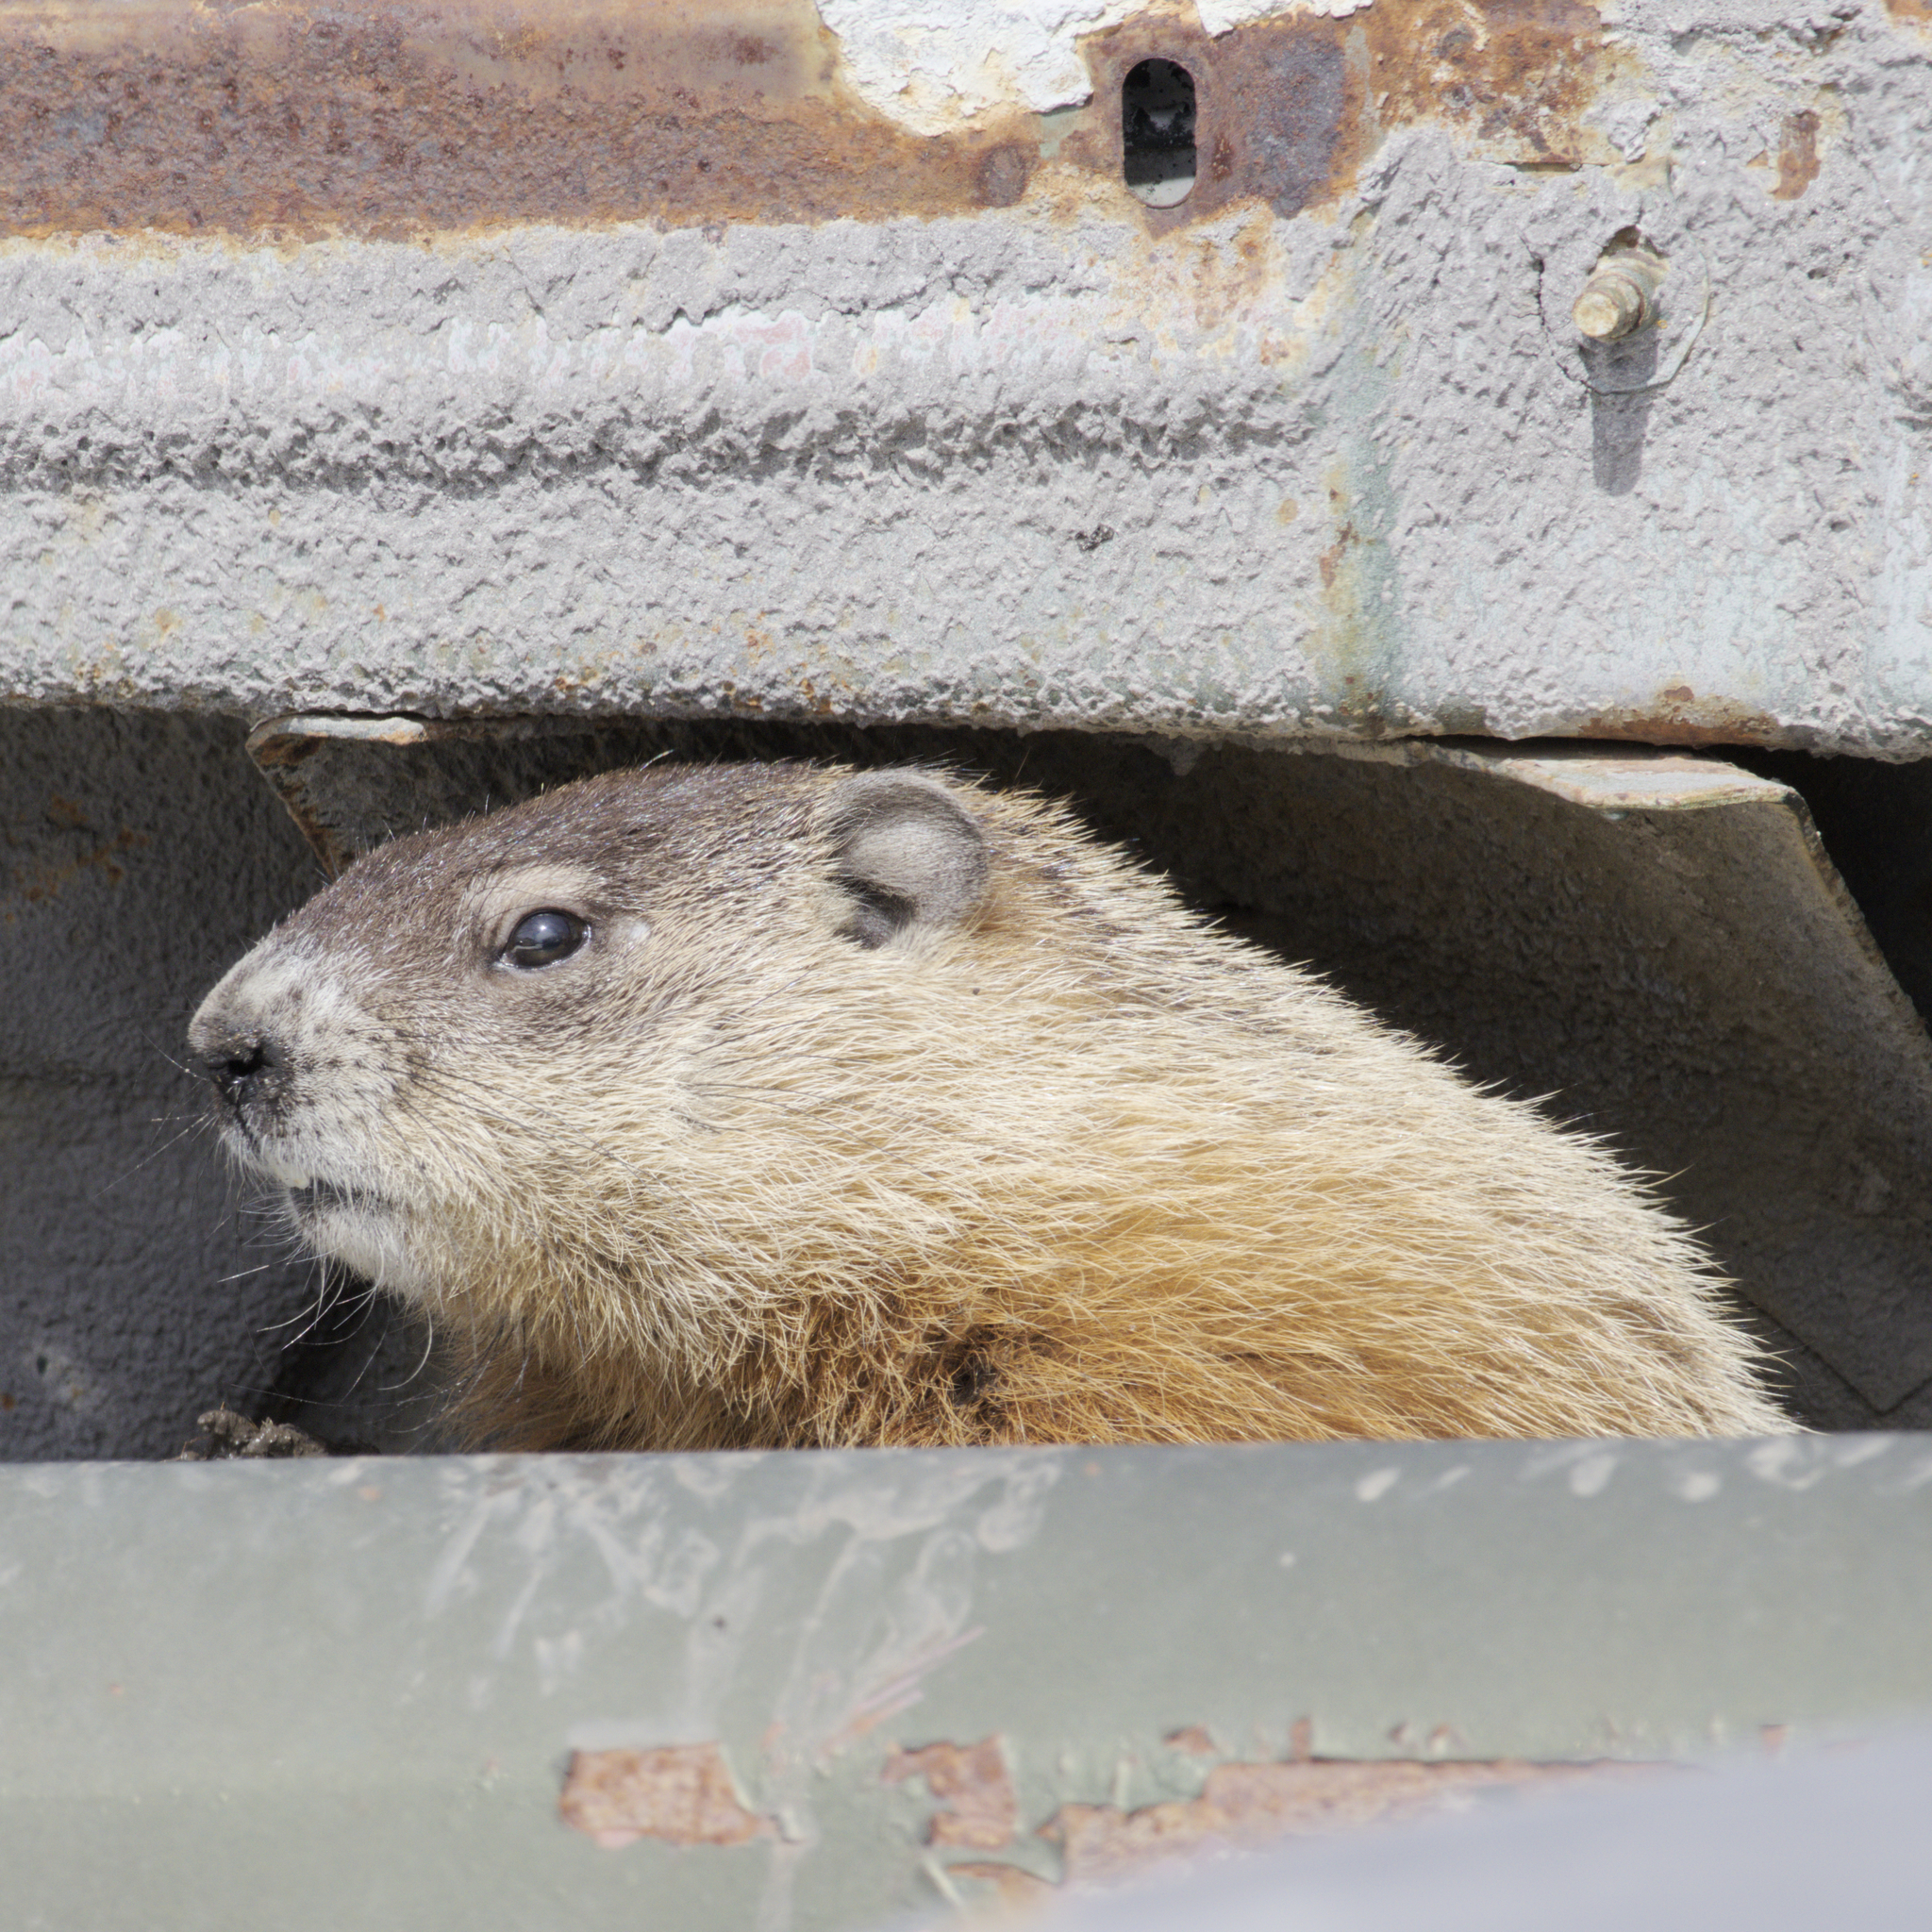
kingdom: Animalia
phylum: Chordata
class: Mammalia
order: Rodentia
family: Sciuridae
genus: Marmota
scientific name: Marmota monax
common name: Groundhog
